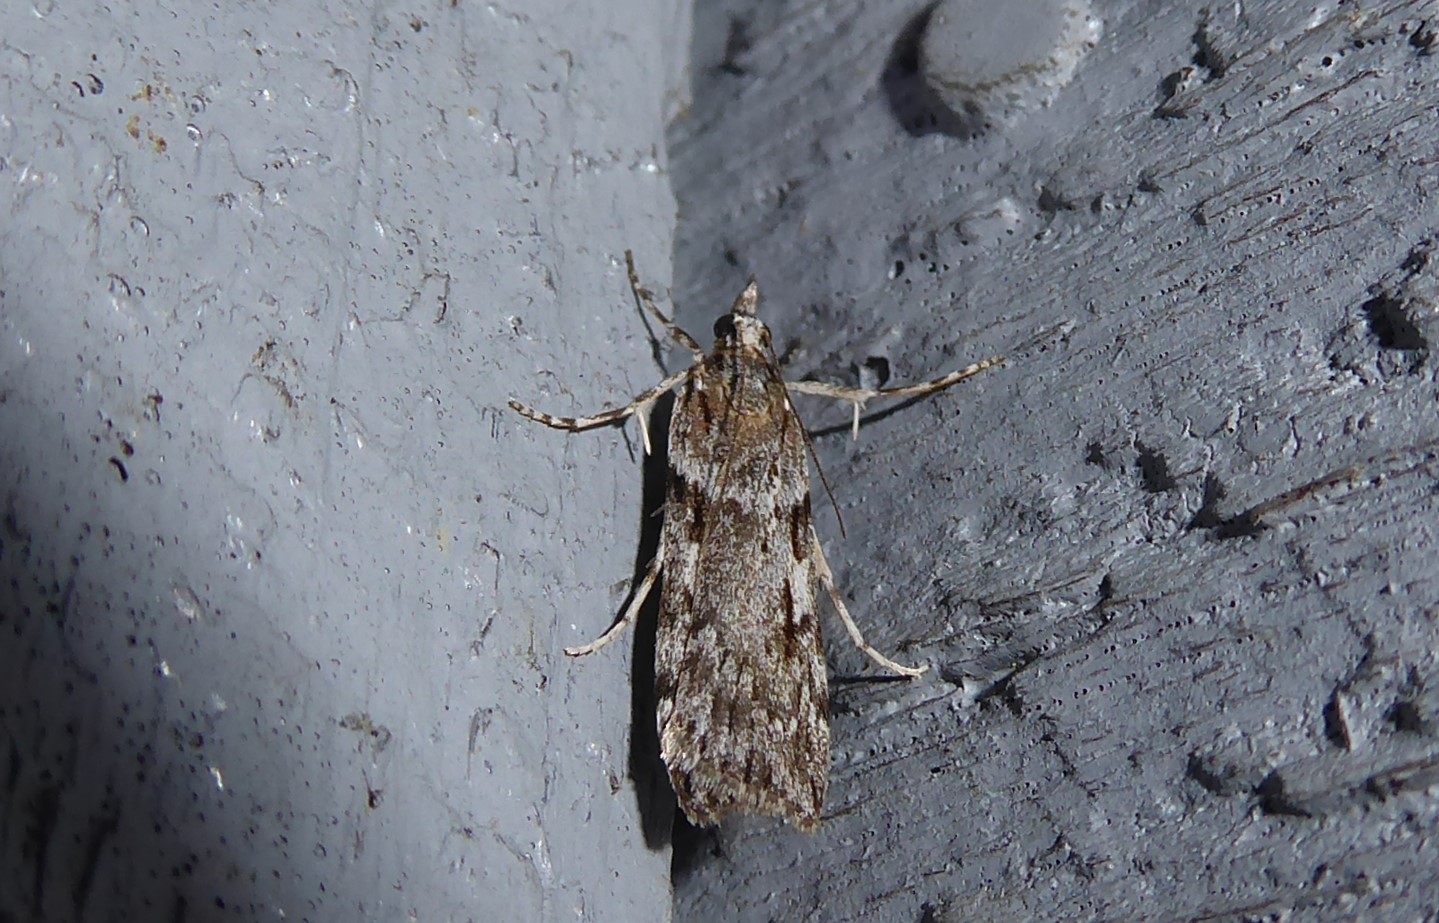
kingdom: Animalia
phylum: Arthropoda
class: Insecta
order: Lepidoptera
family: Crambidae
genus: Scoparia
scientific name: Scoparia halopis
